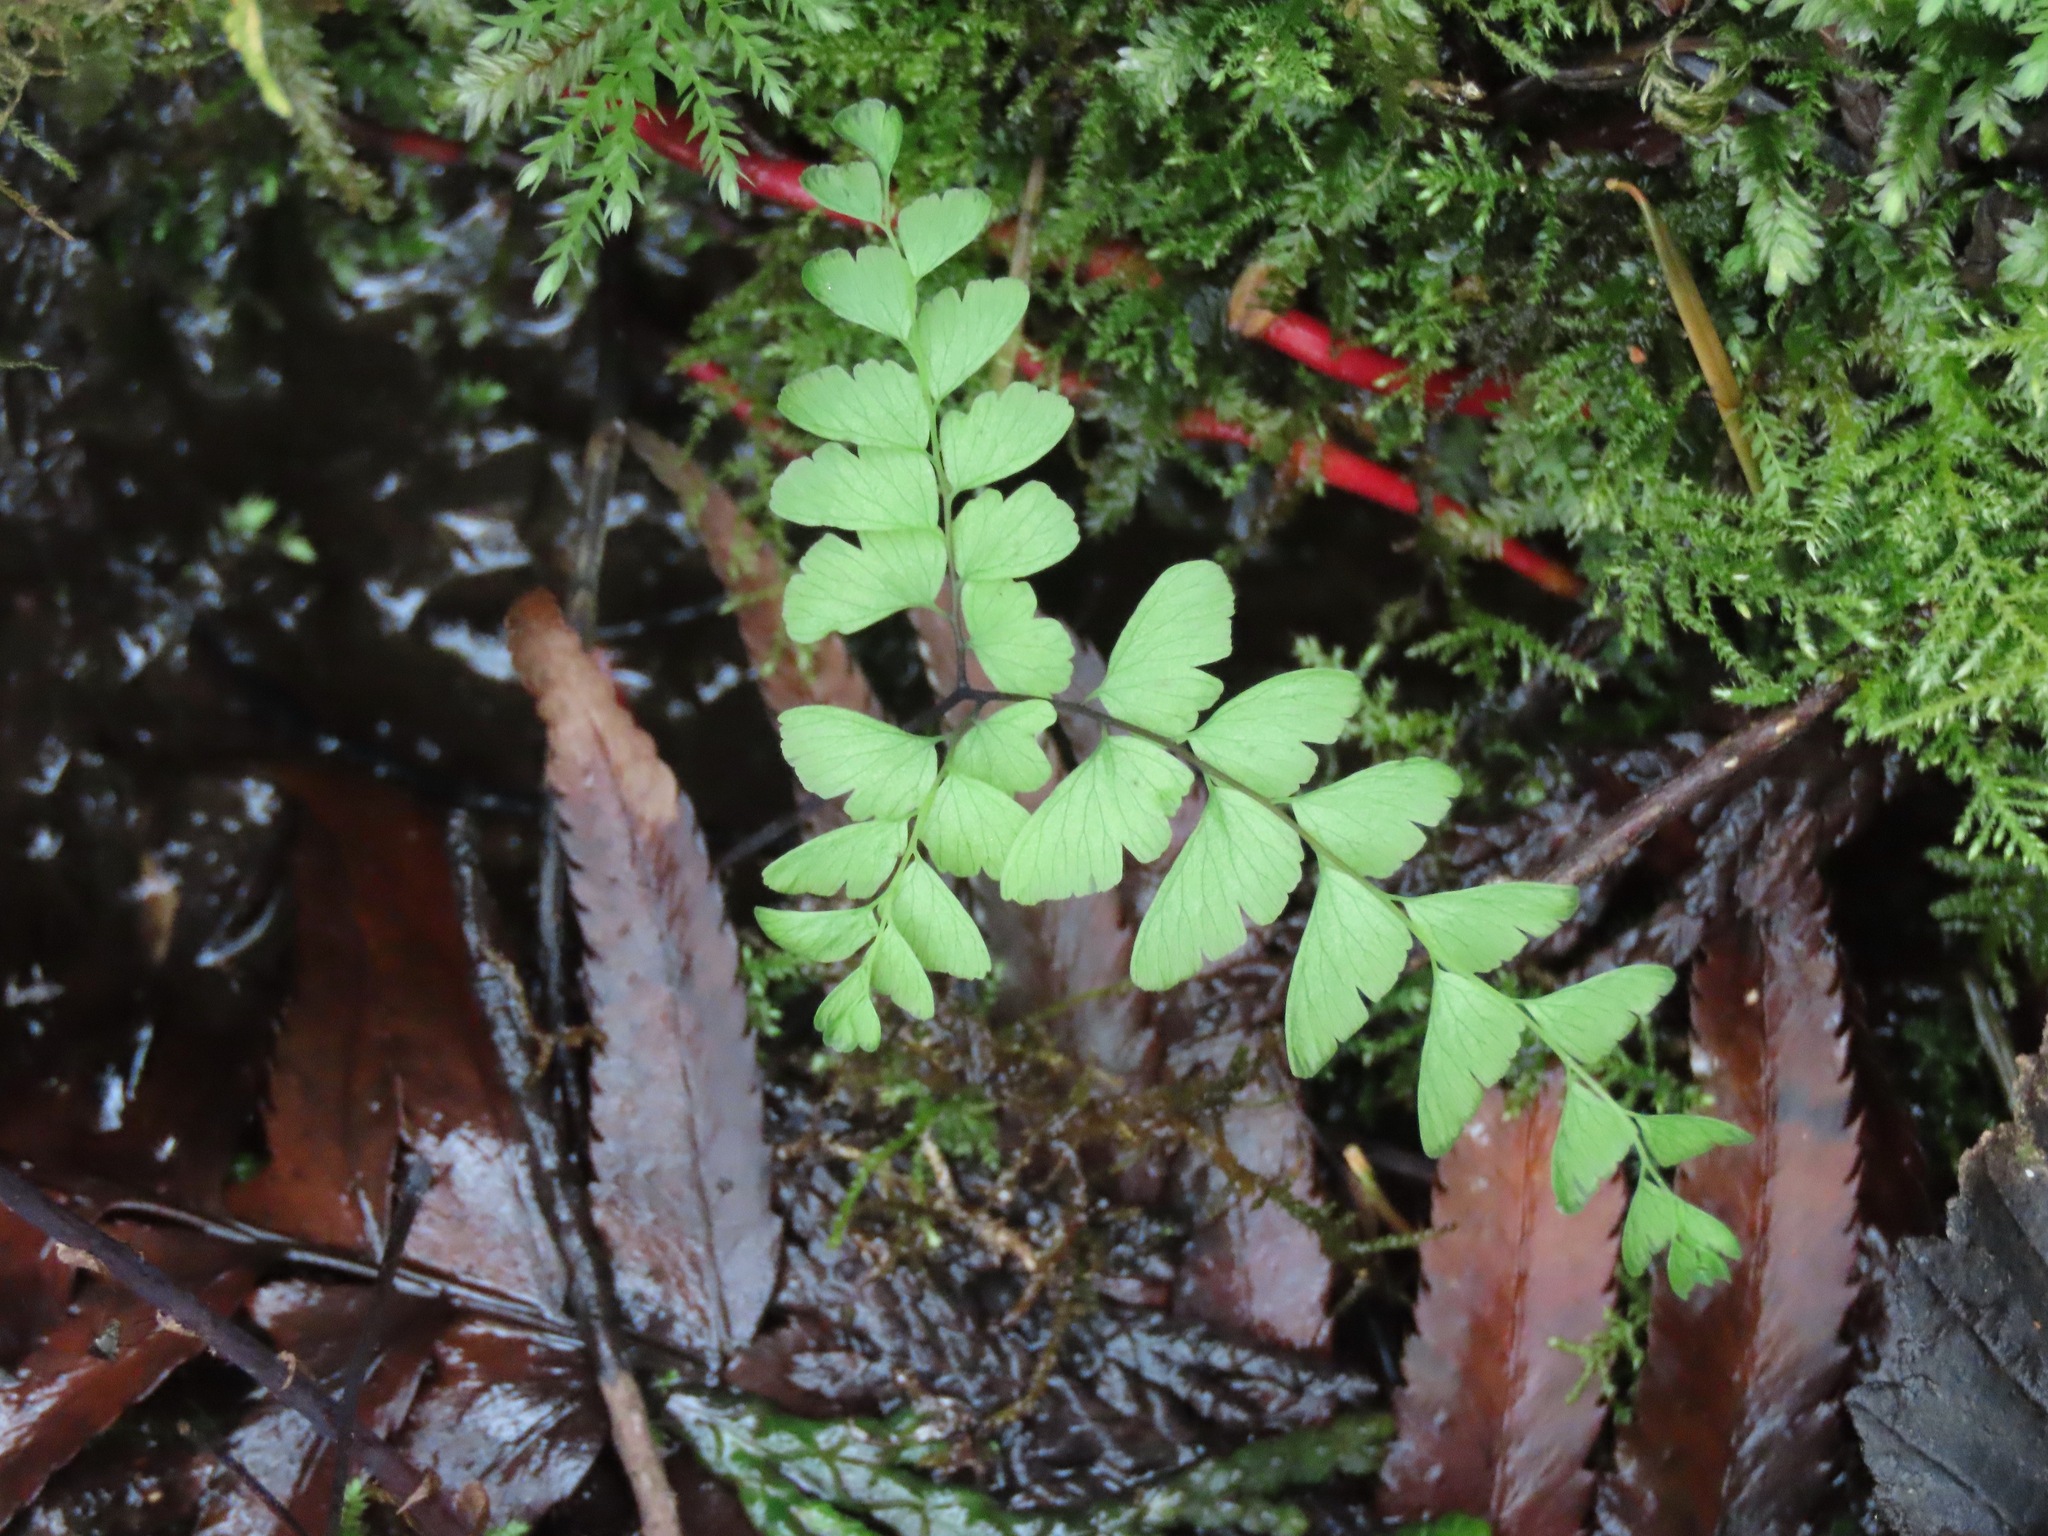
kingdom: Plantae
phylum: Tracheophyta
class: Polypodiopsida
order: Polypodiales
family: Pteridaceae
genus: Adiantum
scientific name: Adiantum aleuticum
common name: Aleutian maidenhair fern
